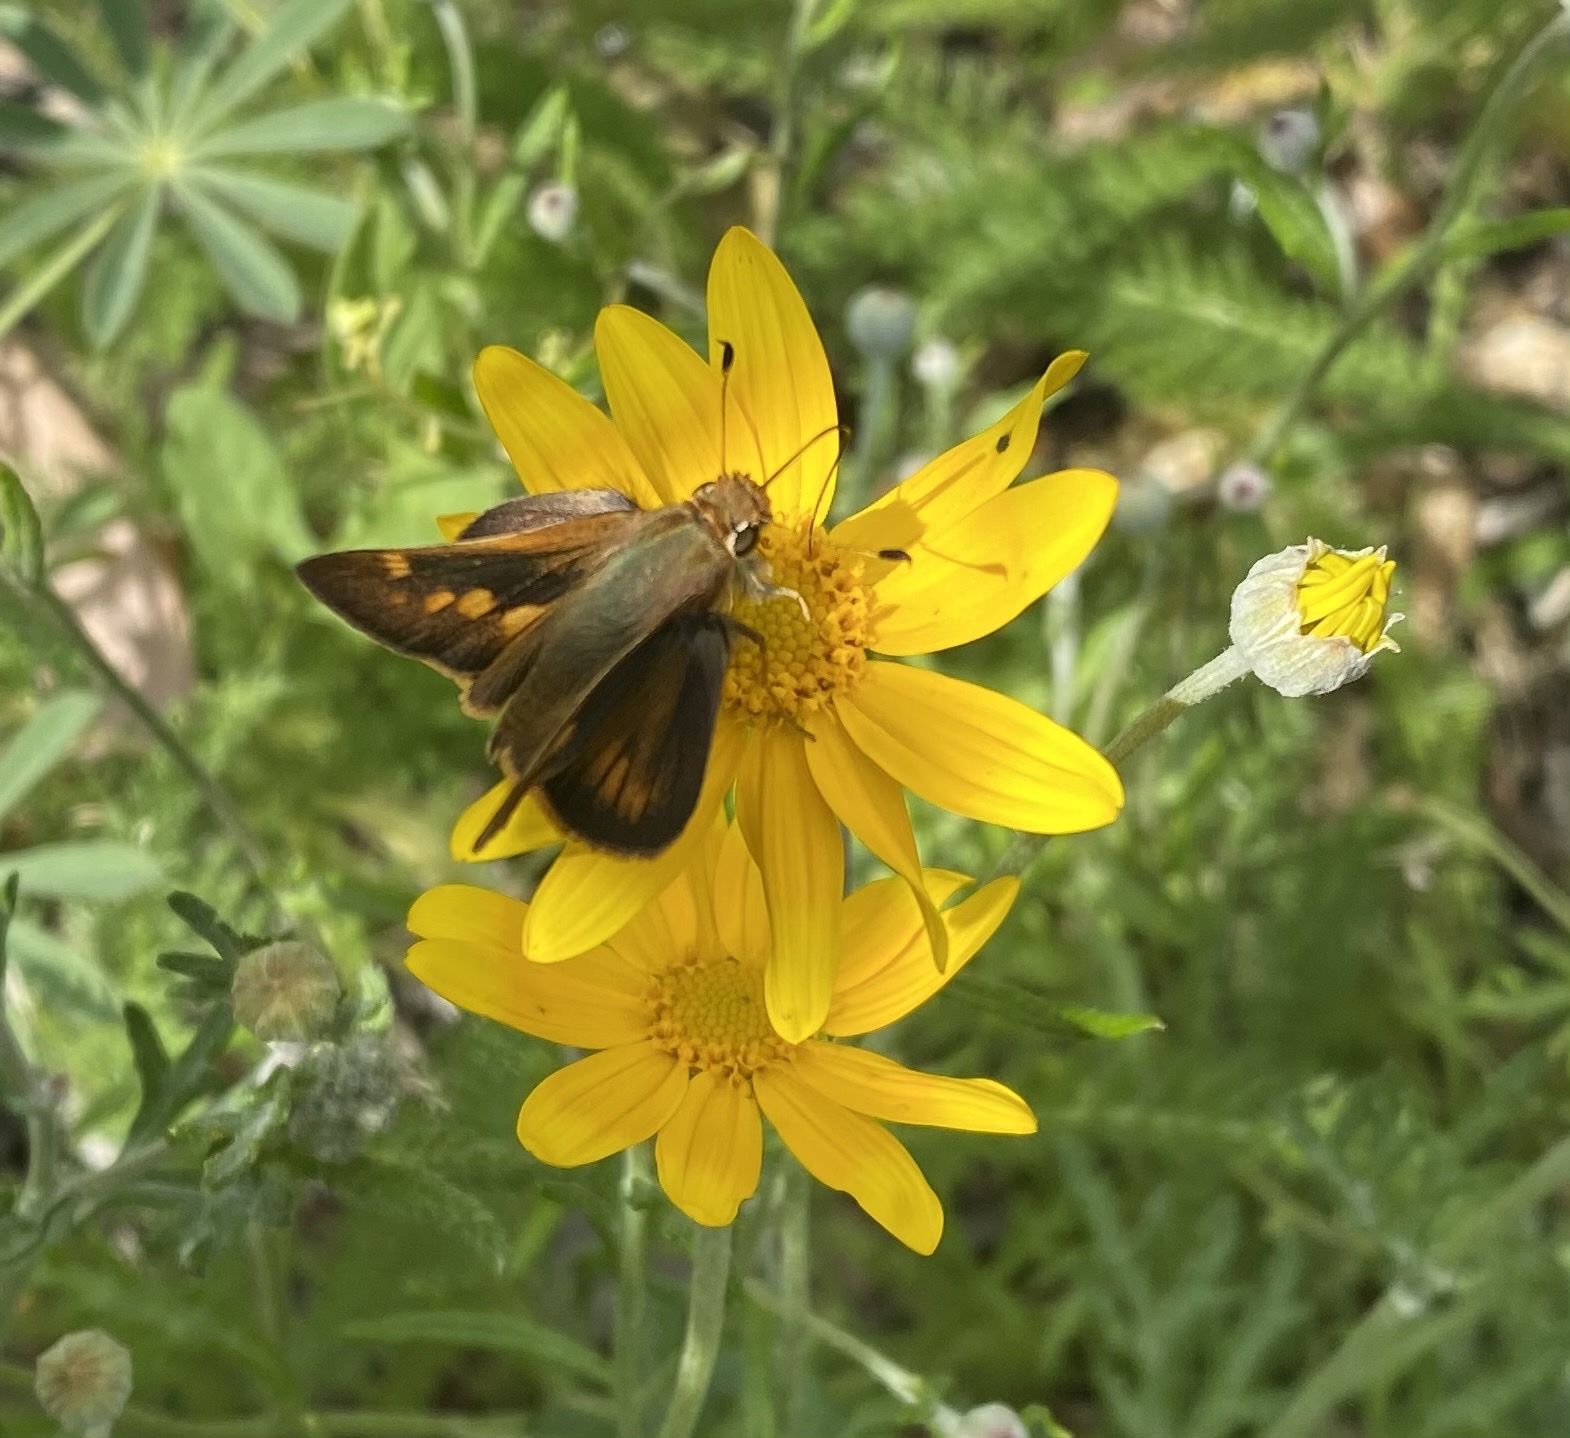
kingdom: Animalia
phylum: Arthropoda
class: Insecta
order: Lepidoptera
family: Hesperiidae
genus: Lon
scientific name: Lon melane
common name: Umber skipper
